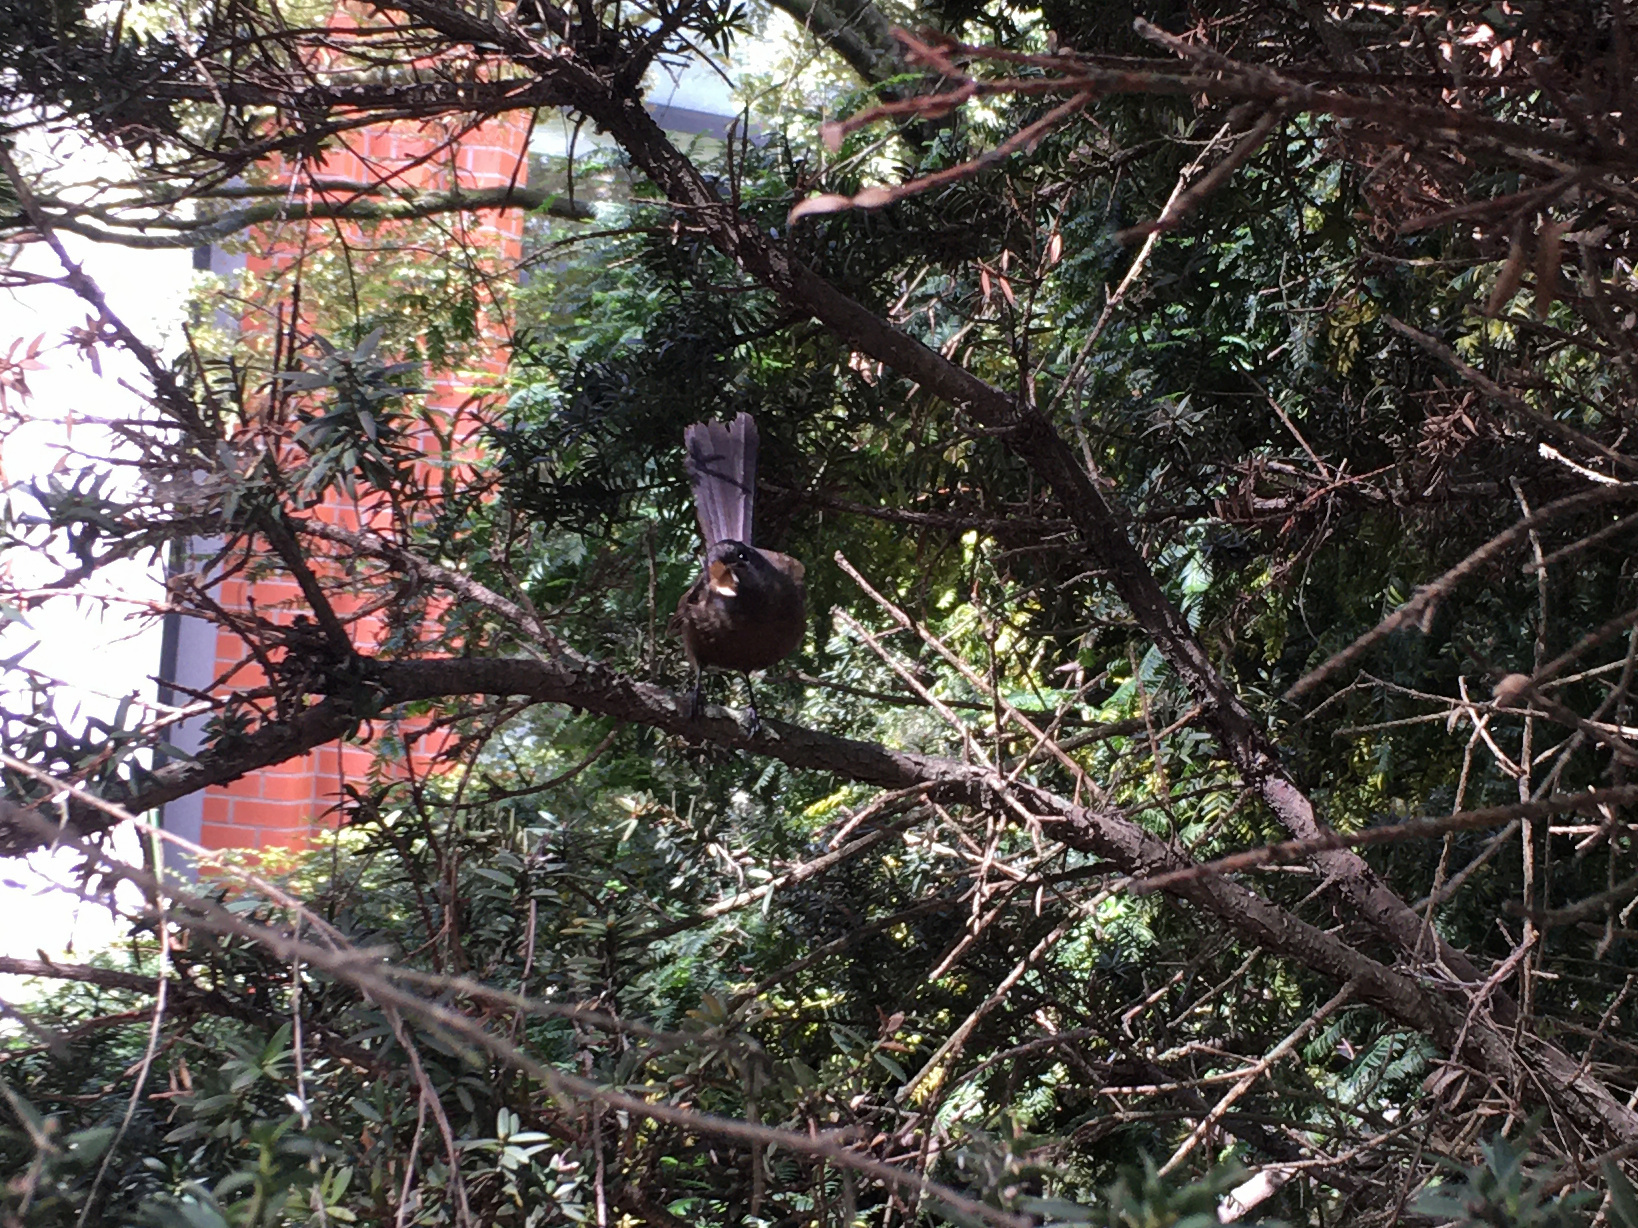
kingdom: Animalia
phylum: Chordata
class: Aves
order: Passeriformes
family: Rhipiduridae
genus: Rhipidura
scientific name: Rhipidura fuliginosa
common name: New zealand fantail
